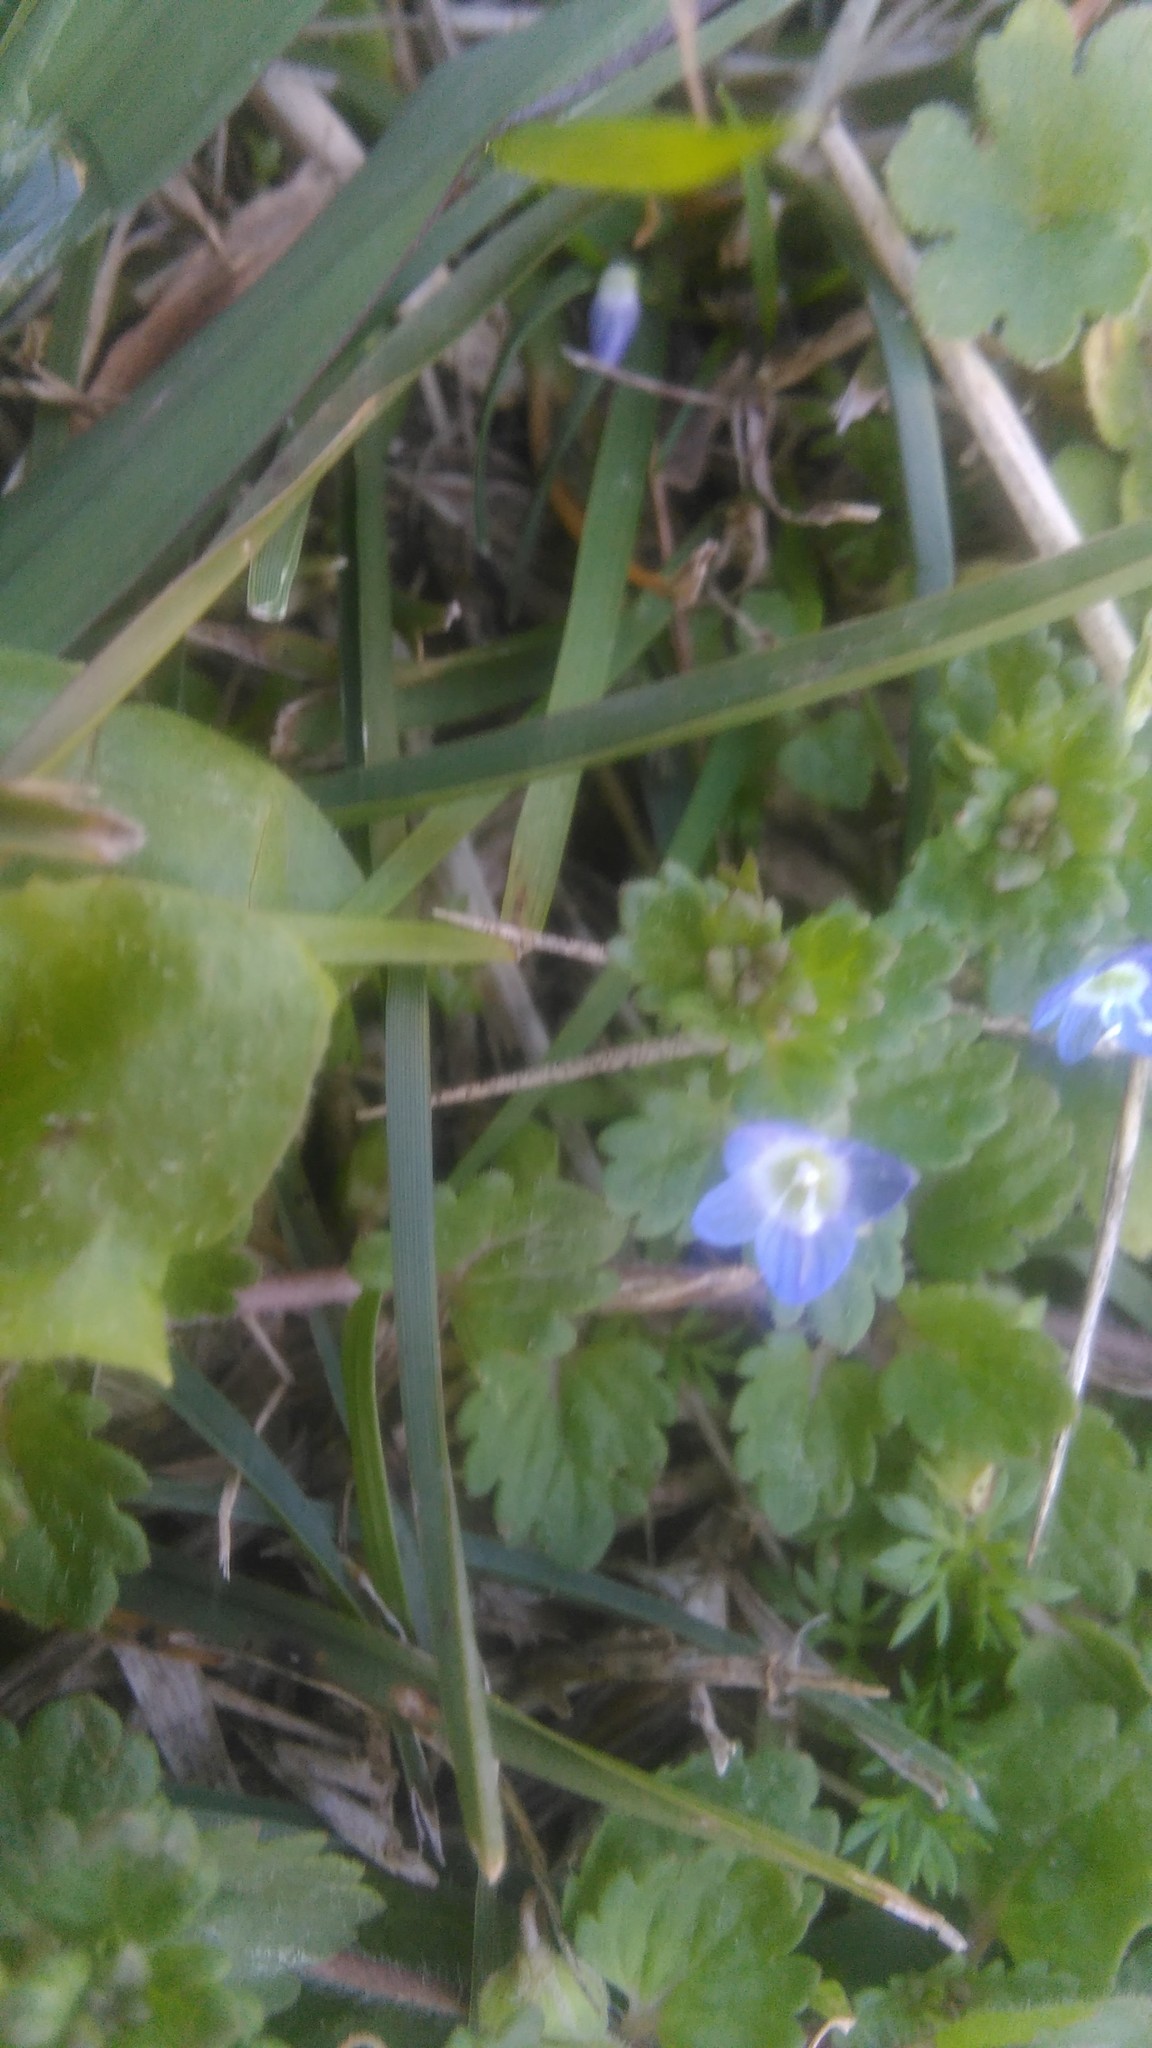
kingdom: Plantae
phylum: Tracheophyta
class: Magnoliopsida
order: Lamiales
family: Plantaginaceae
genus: Veronica
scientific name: Veronica persica
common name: Common field-speedwell
